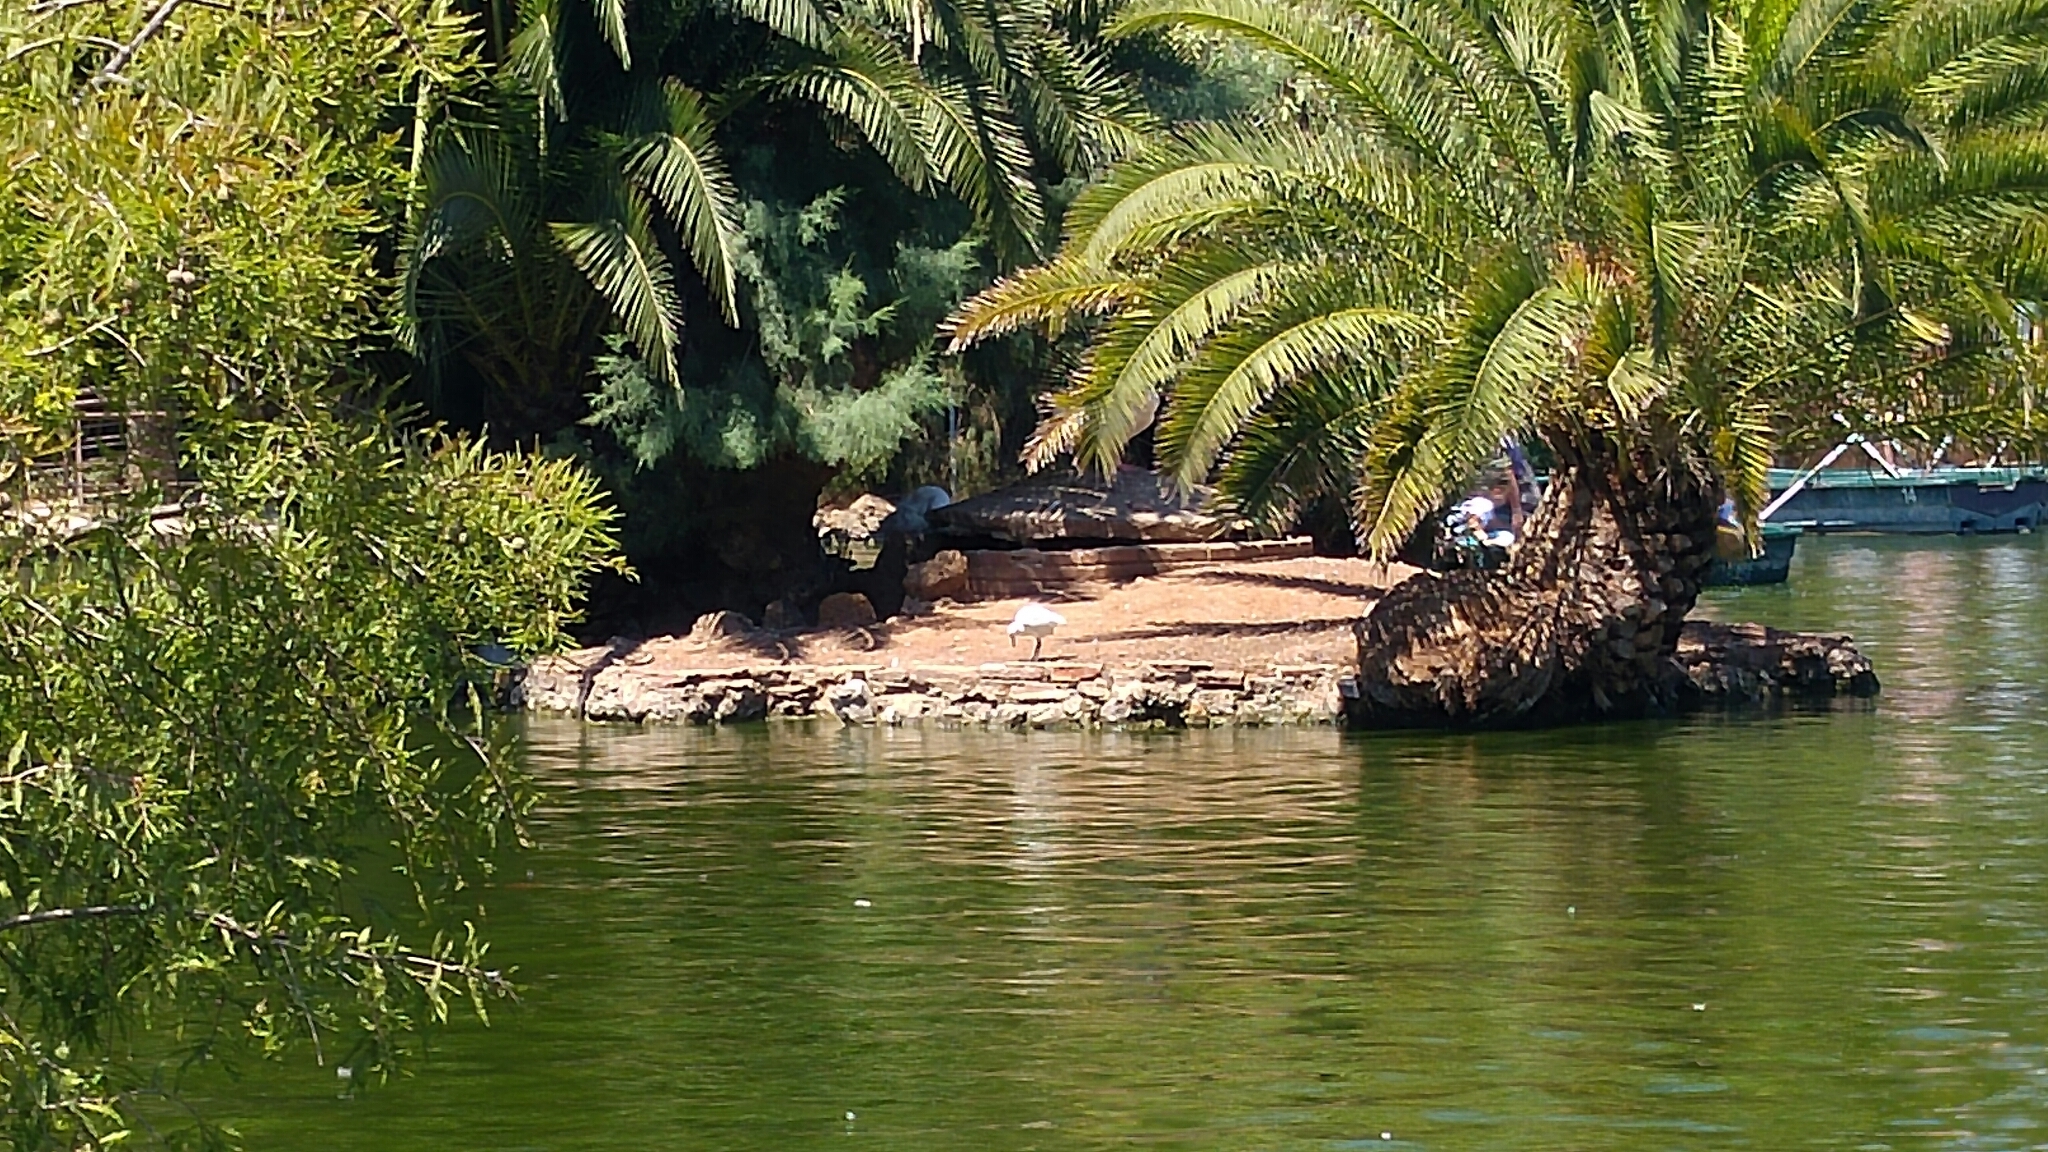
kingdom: Animalia
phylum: Chordata
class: Aves
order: Pelecaniformes
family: Ardeidae
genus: Egretta
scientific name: Egretta garzetta
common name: Little egret
